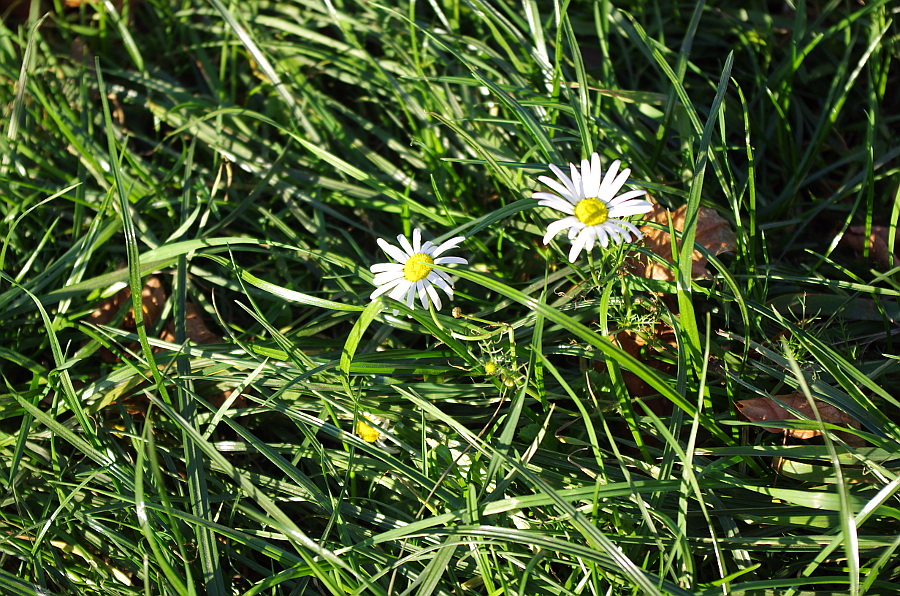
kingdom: Plantae
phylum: Tracheophyta
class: Magnoliopsida
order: Asterales
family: Asteraceae
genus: Tripleurospermum
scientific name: Tripleurospermum inodorum
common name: Scentless mayweed
